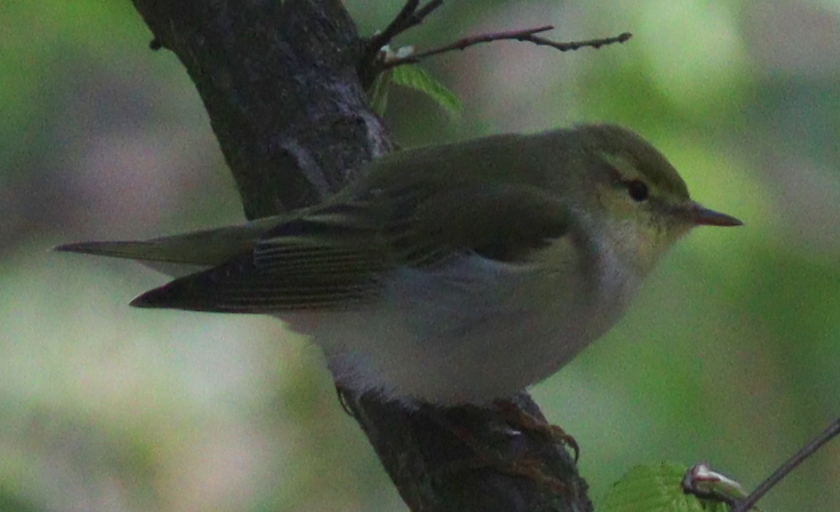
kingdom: Animalia
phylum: Chordata
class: Aves
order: Passeriformes
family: Phylloscopidae
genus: Phylloscopus
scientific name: Phylloscopus sibillatrix
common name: Wood warbler
